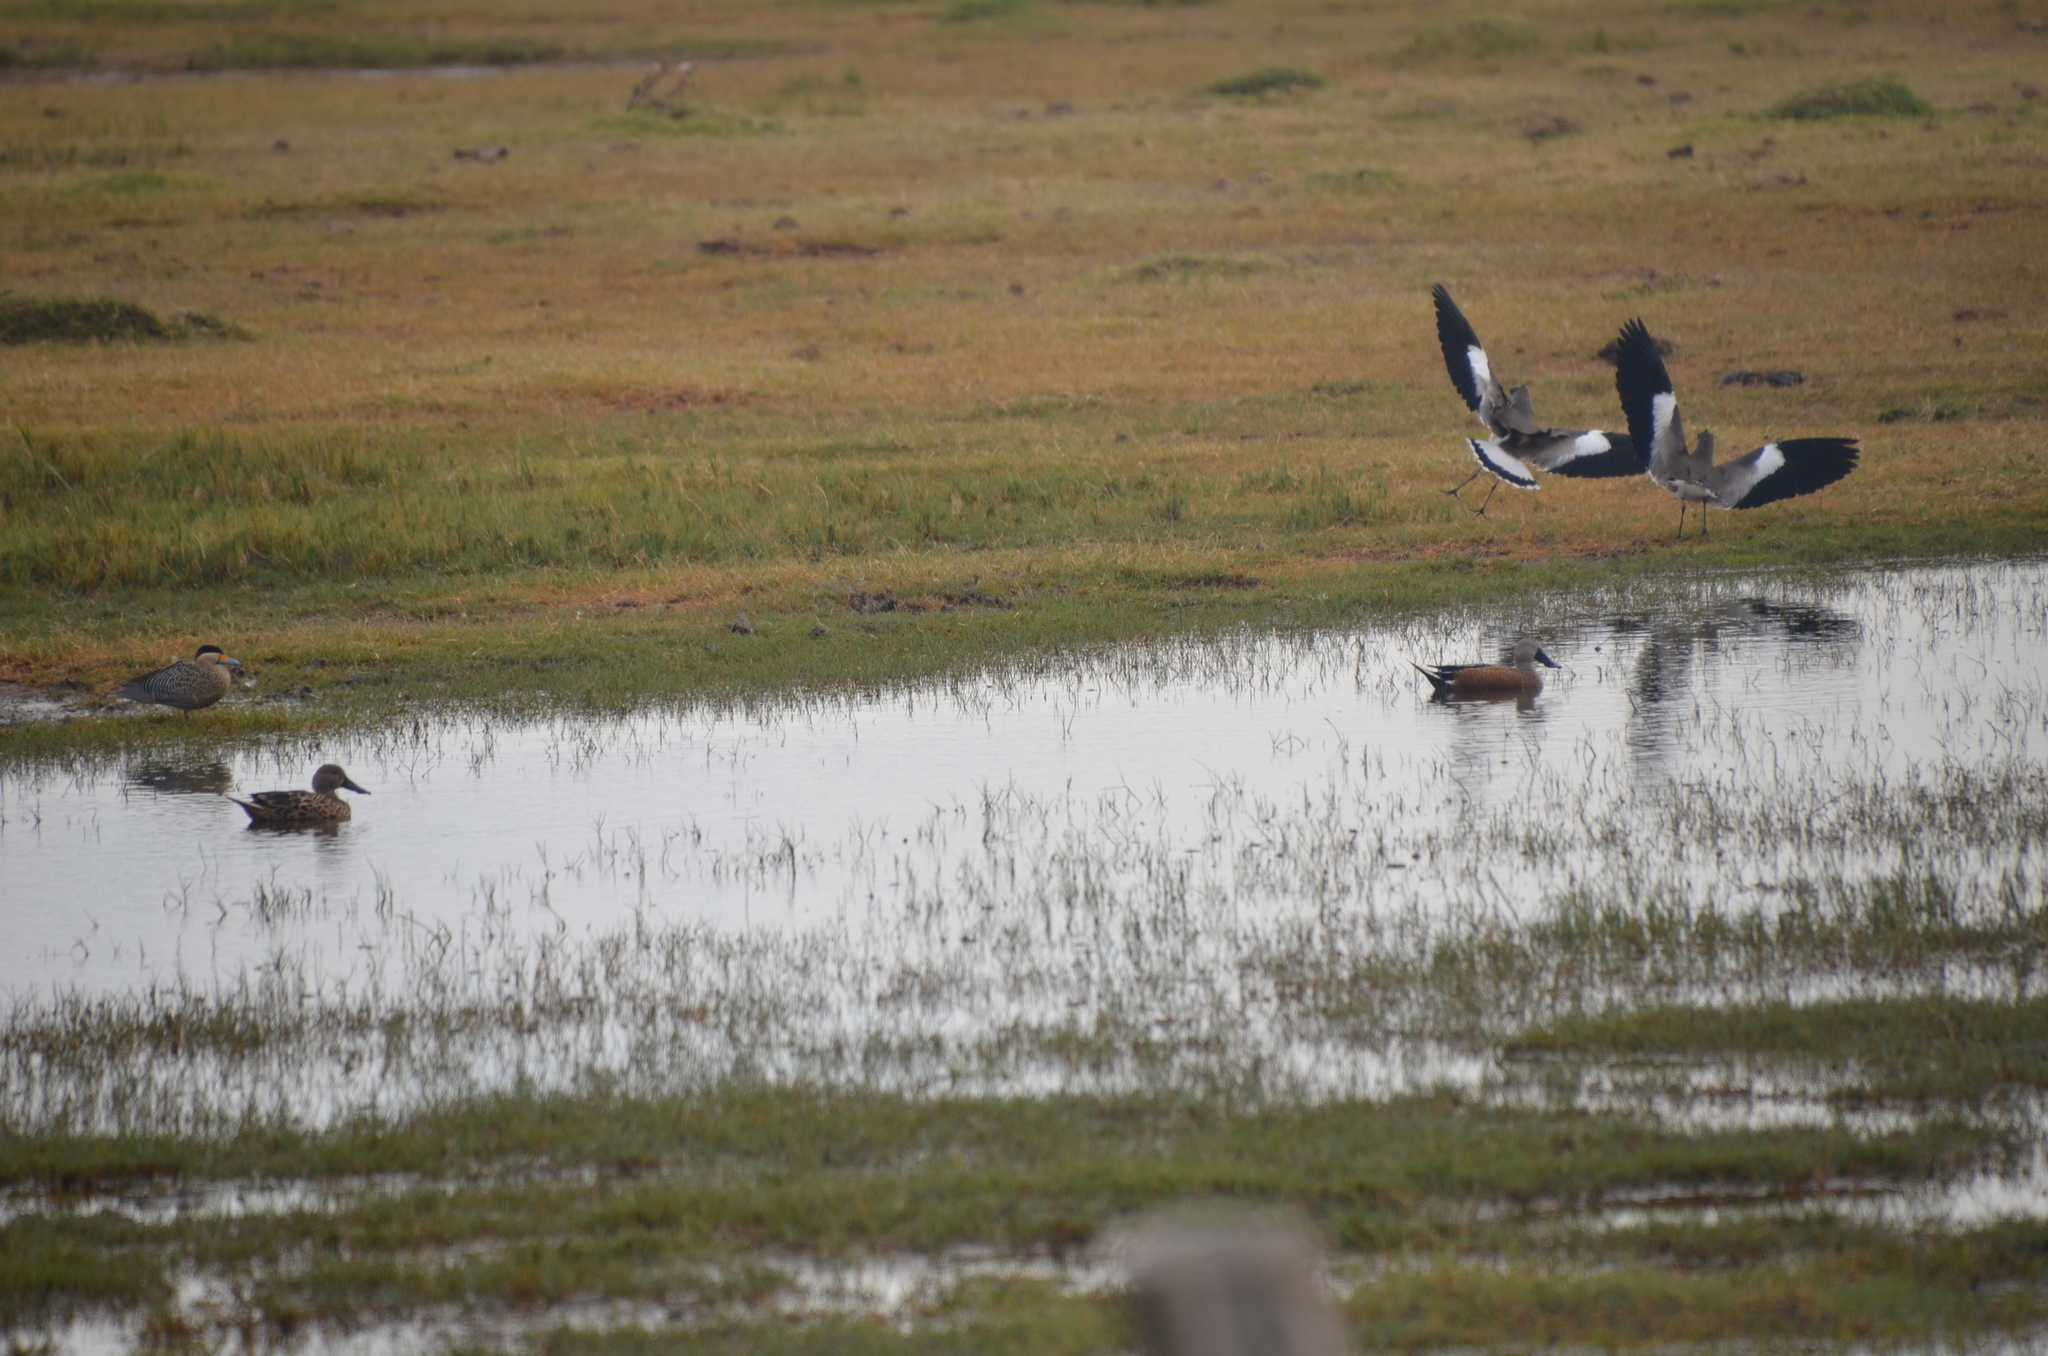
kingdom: Animalia
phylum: Chordata
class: Aves
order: Charadriiformes
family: Charadriidae
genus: Vanellus
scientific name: Vanellus chilensis
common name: Southern lapwing
